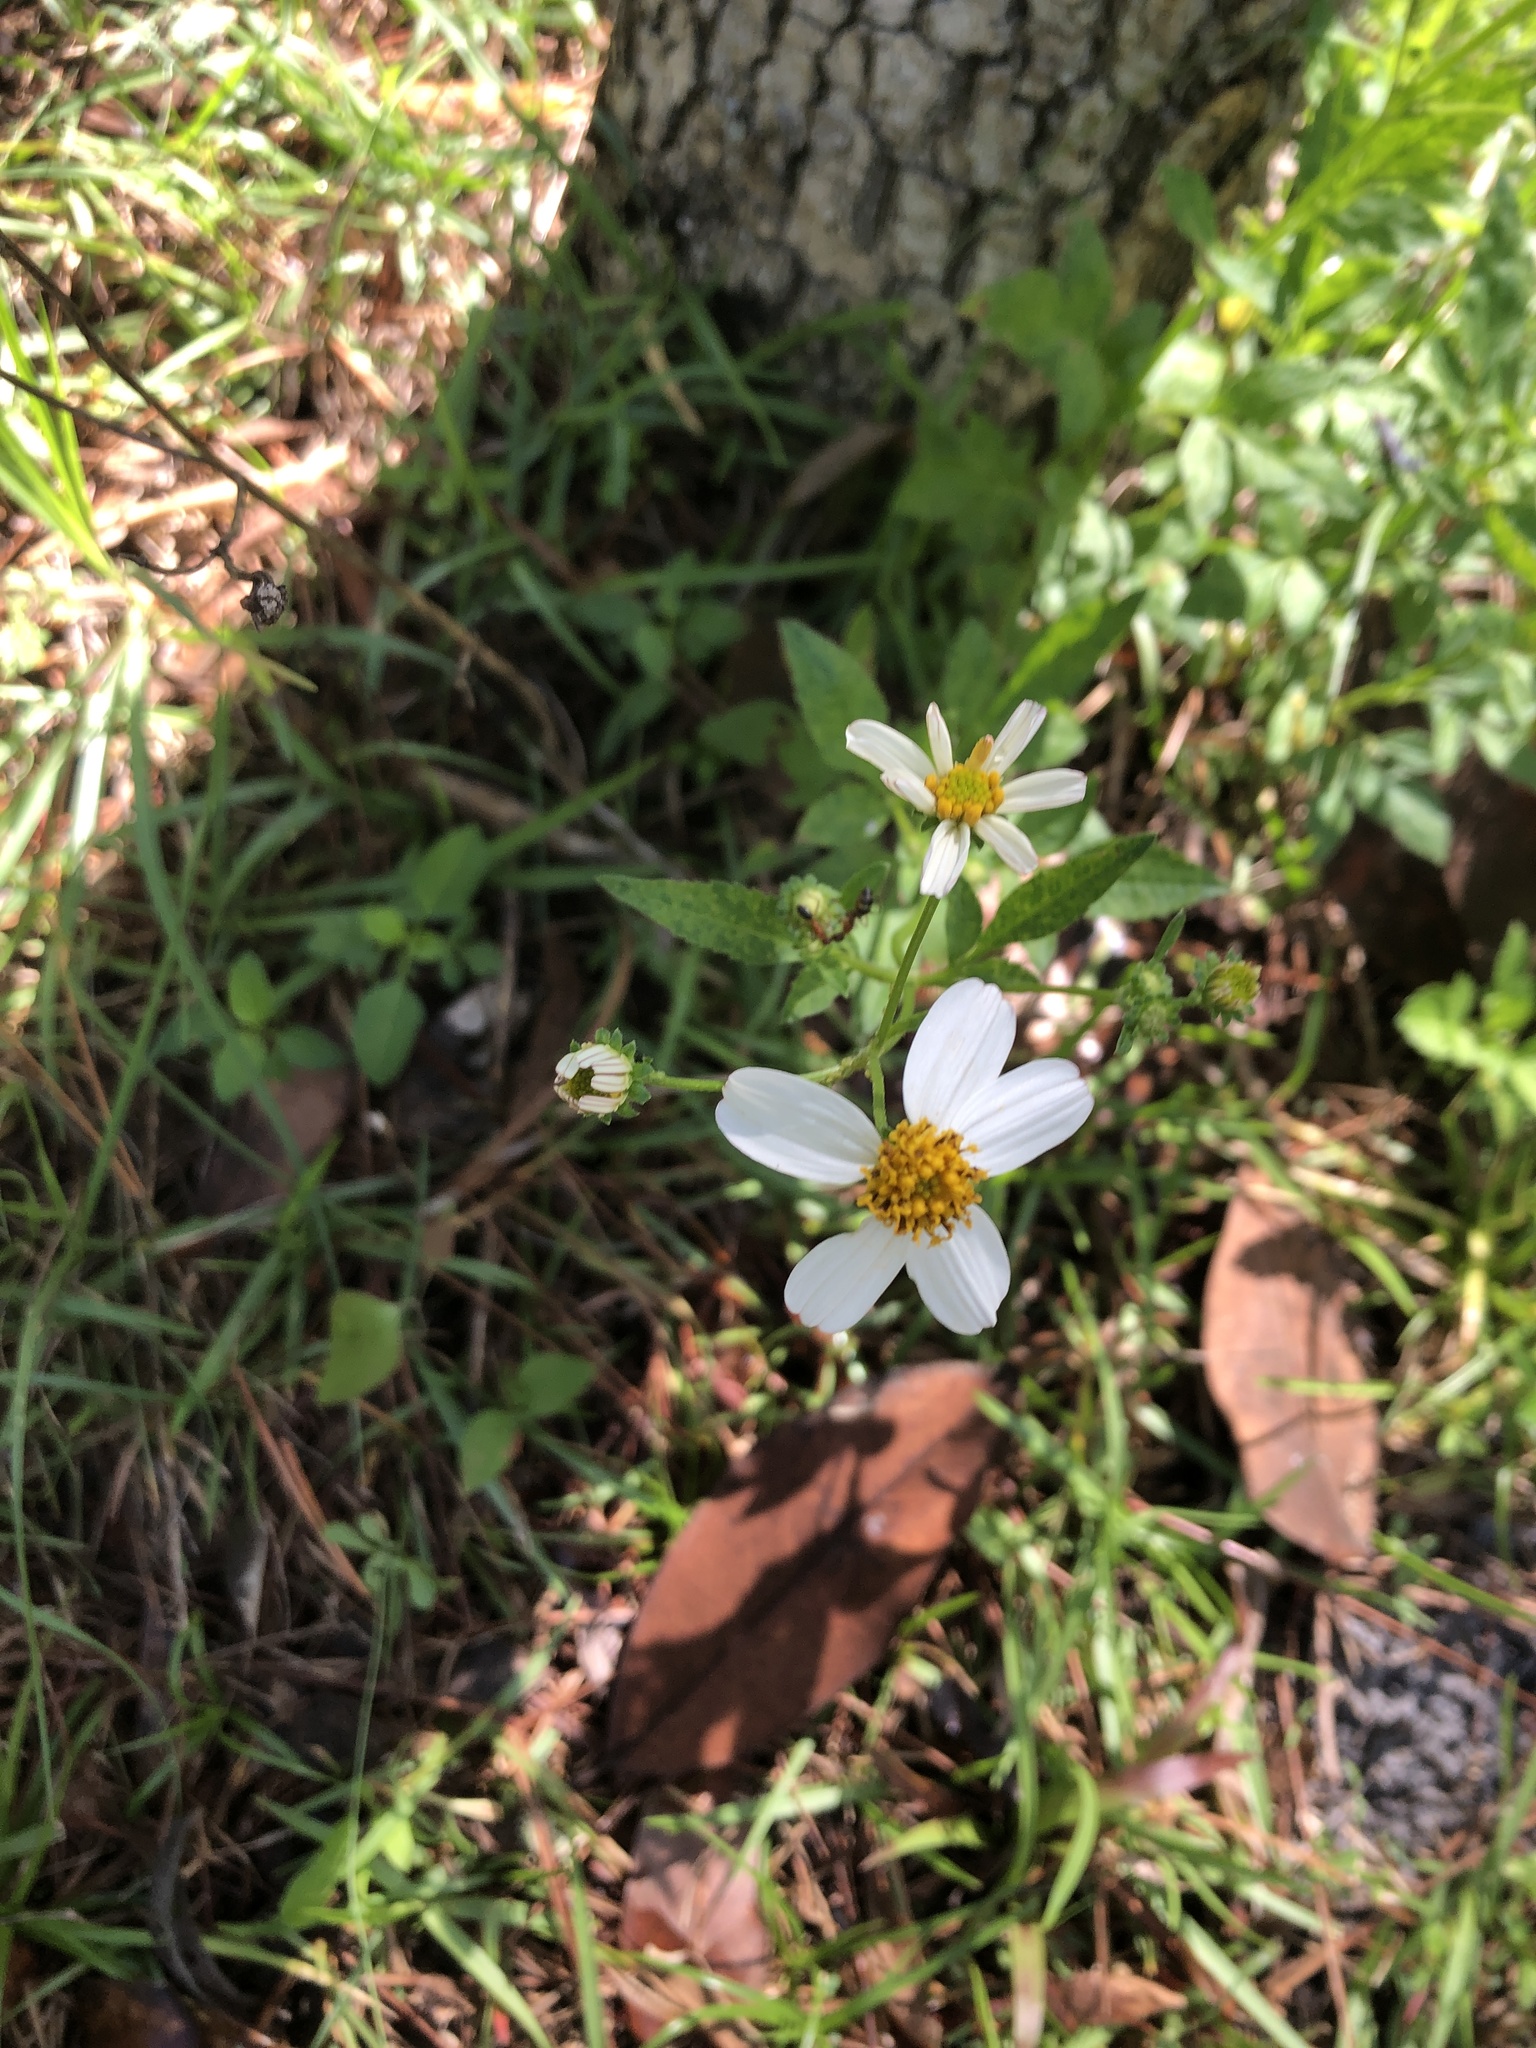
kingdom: Plantae
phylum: Tracheophyta
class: Magnoliopsida
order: Asterales
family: Asteraceae
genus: Bidens
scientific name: Bidens alba
